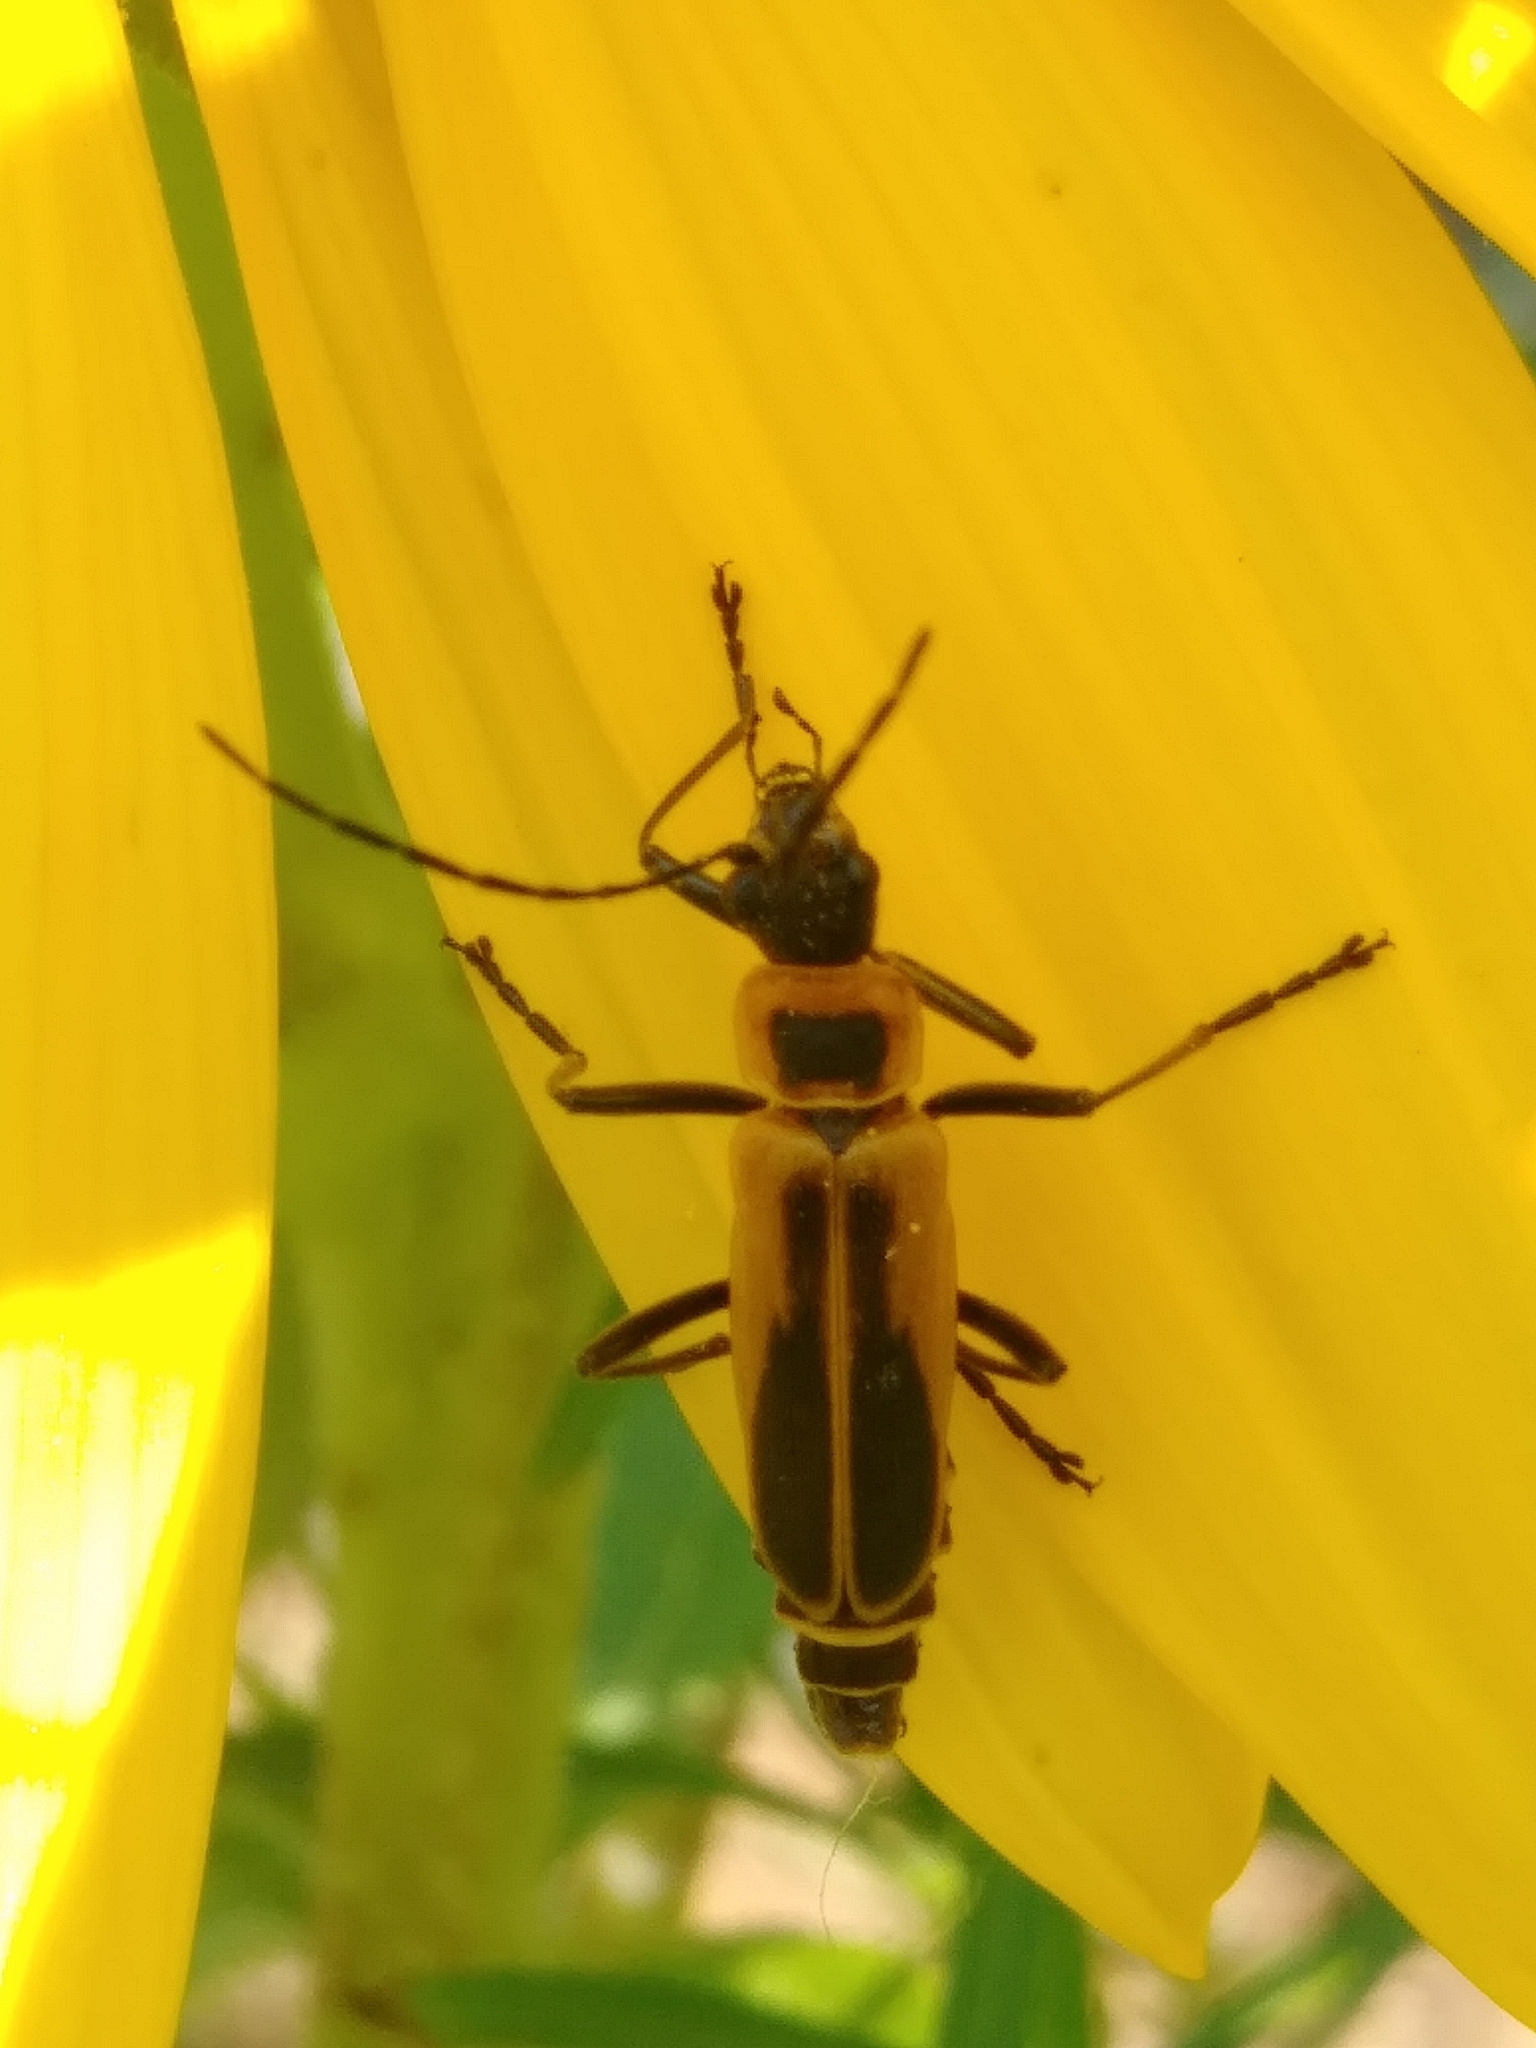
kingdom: Animalia
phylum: Arthropoda
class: Insecta
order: Coleoptera
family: Cantharidae
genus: Chauliognathus
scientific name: Chauliognathus pensylvanicus
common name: Goldenrod soldier beetle
